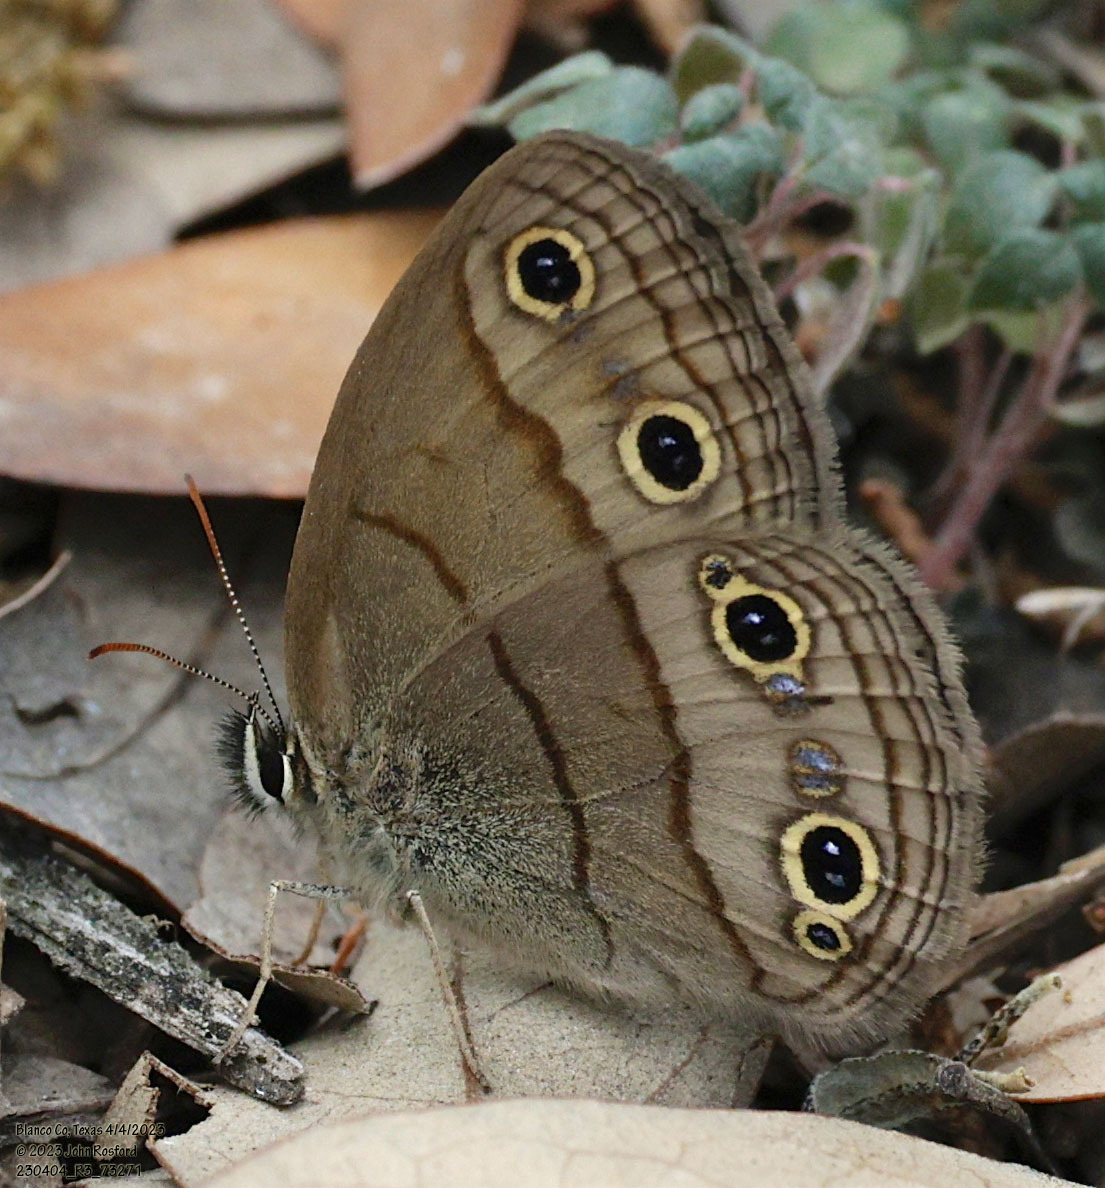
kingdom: Animalia
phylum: Arthropoda
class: Insecta
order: Lepidoptera
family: Nymphalidae
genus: Euptychia
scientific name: Euptychia cymela
